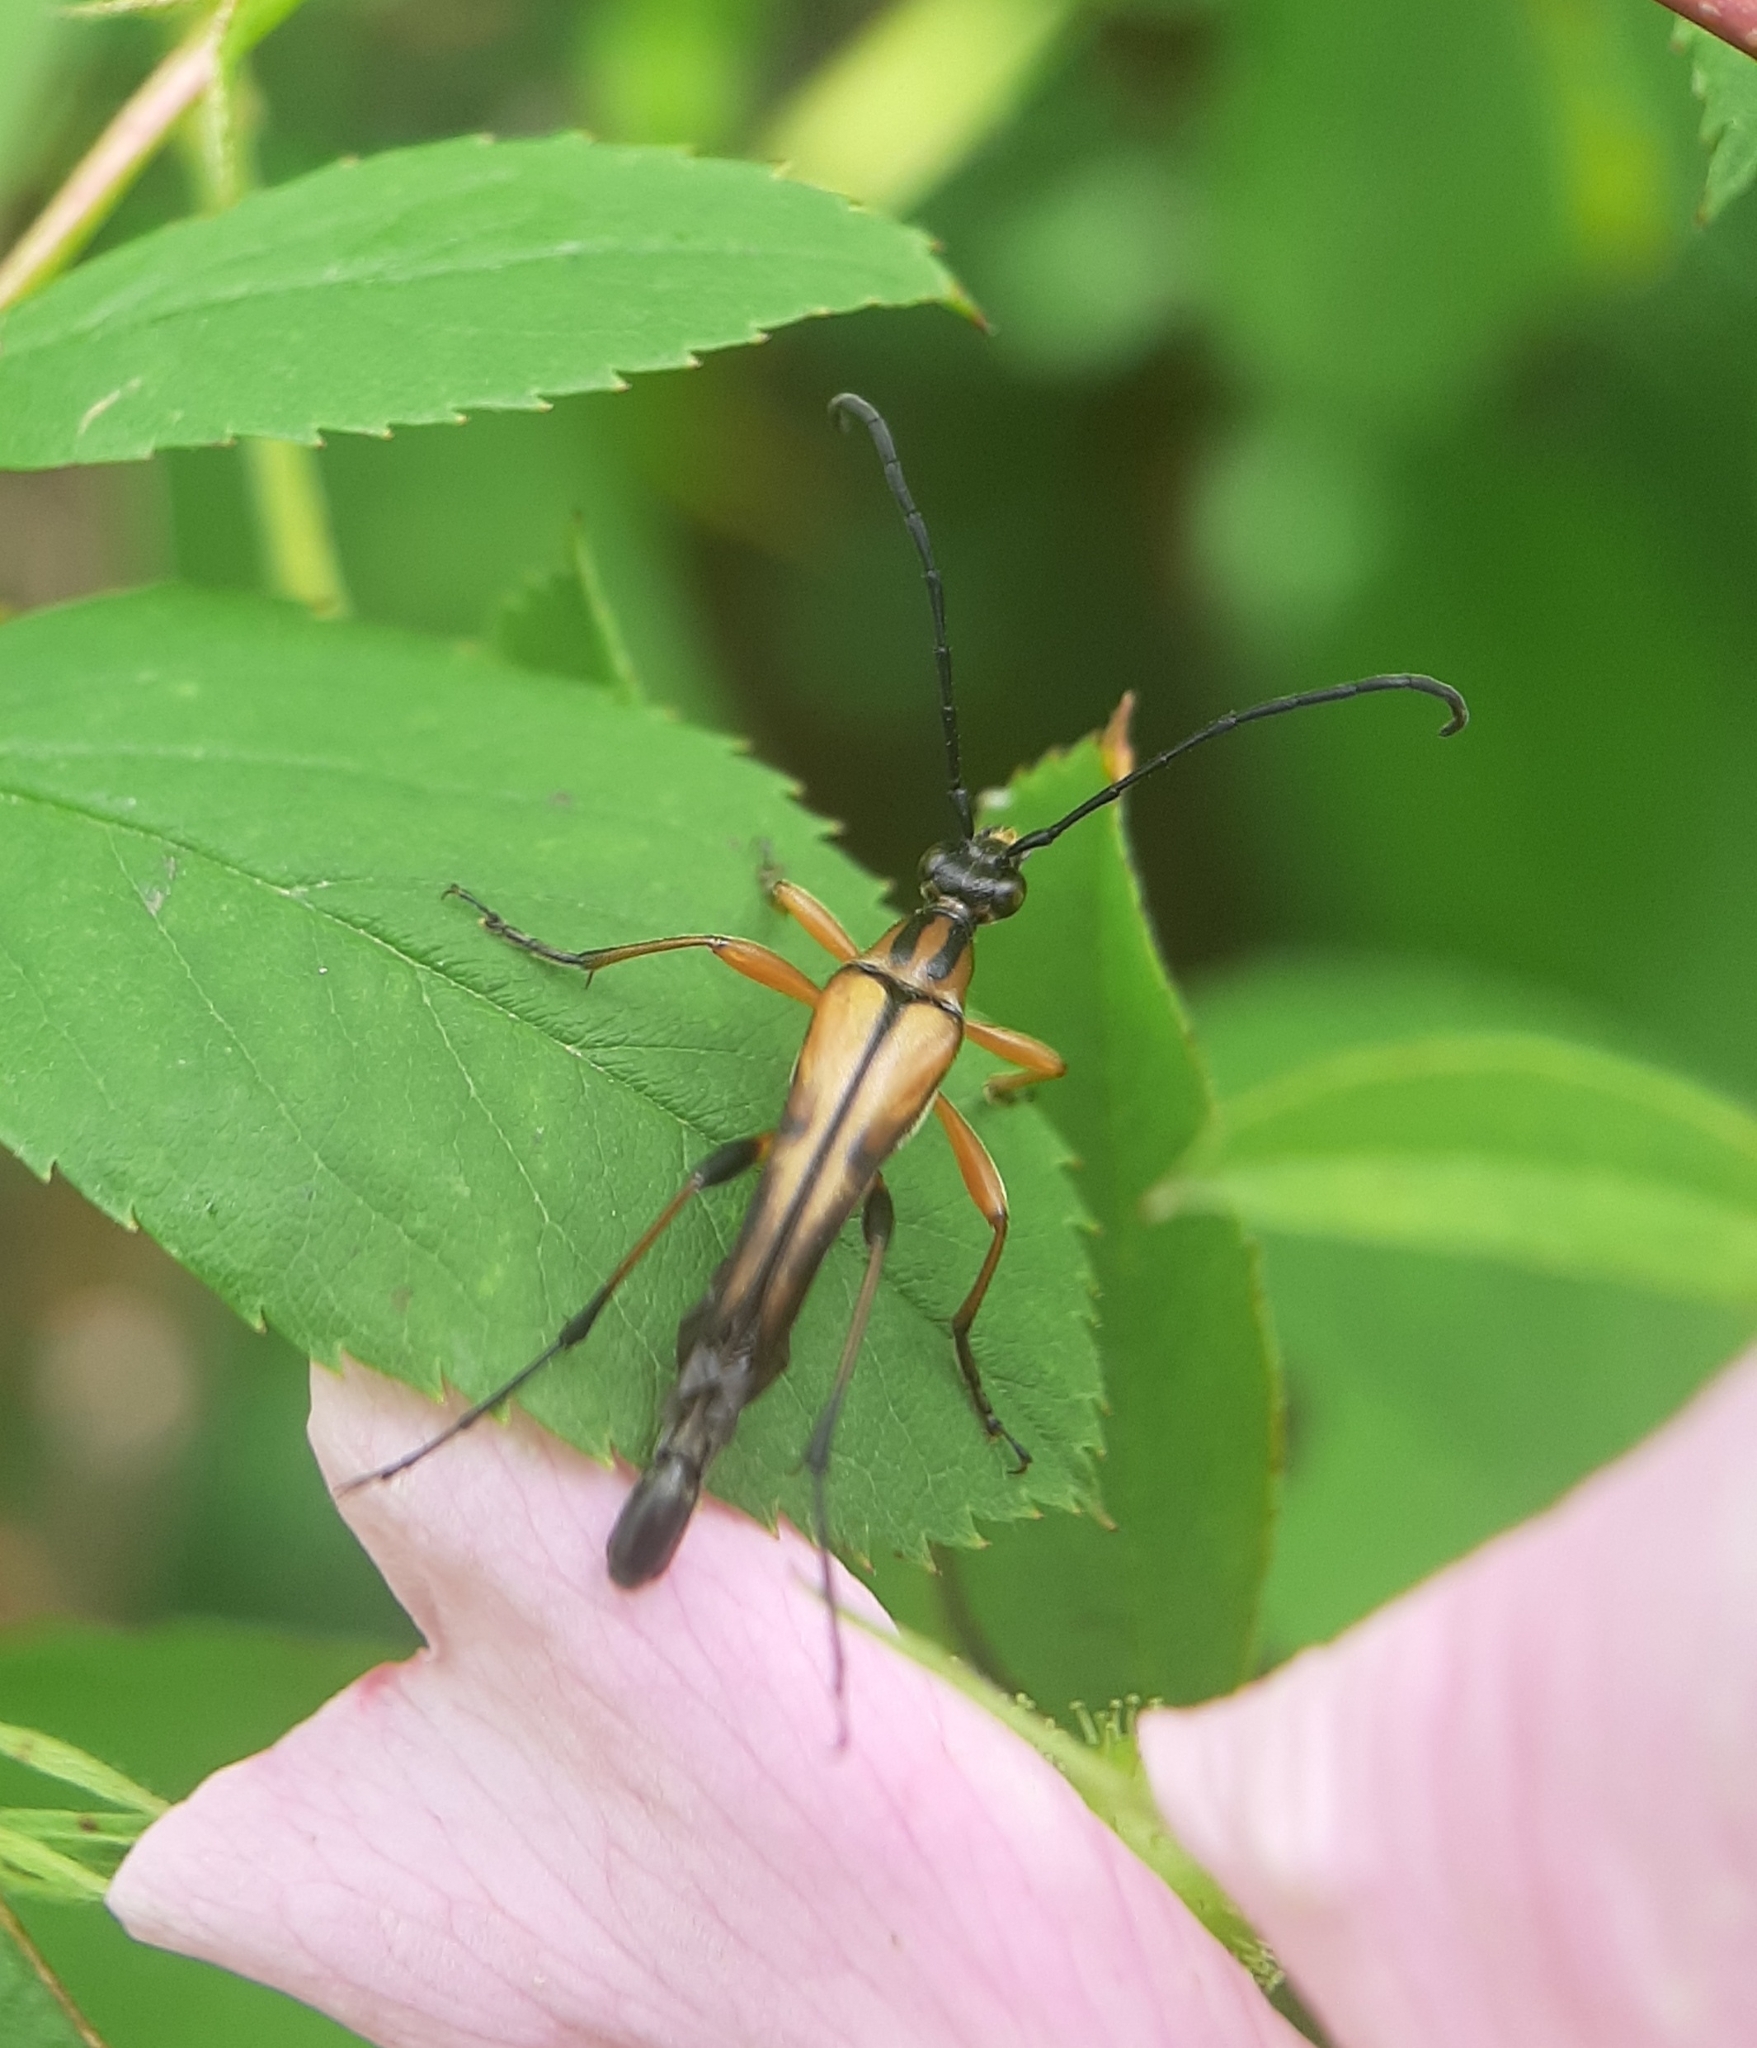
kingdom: Animalia
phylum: Arthropoda
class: Insecta
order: Coleoptera
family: Cerambycidae
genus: Strangalia
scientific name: Strangalia famelica
